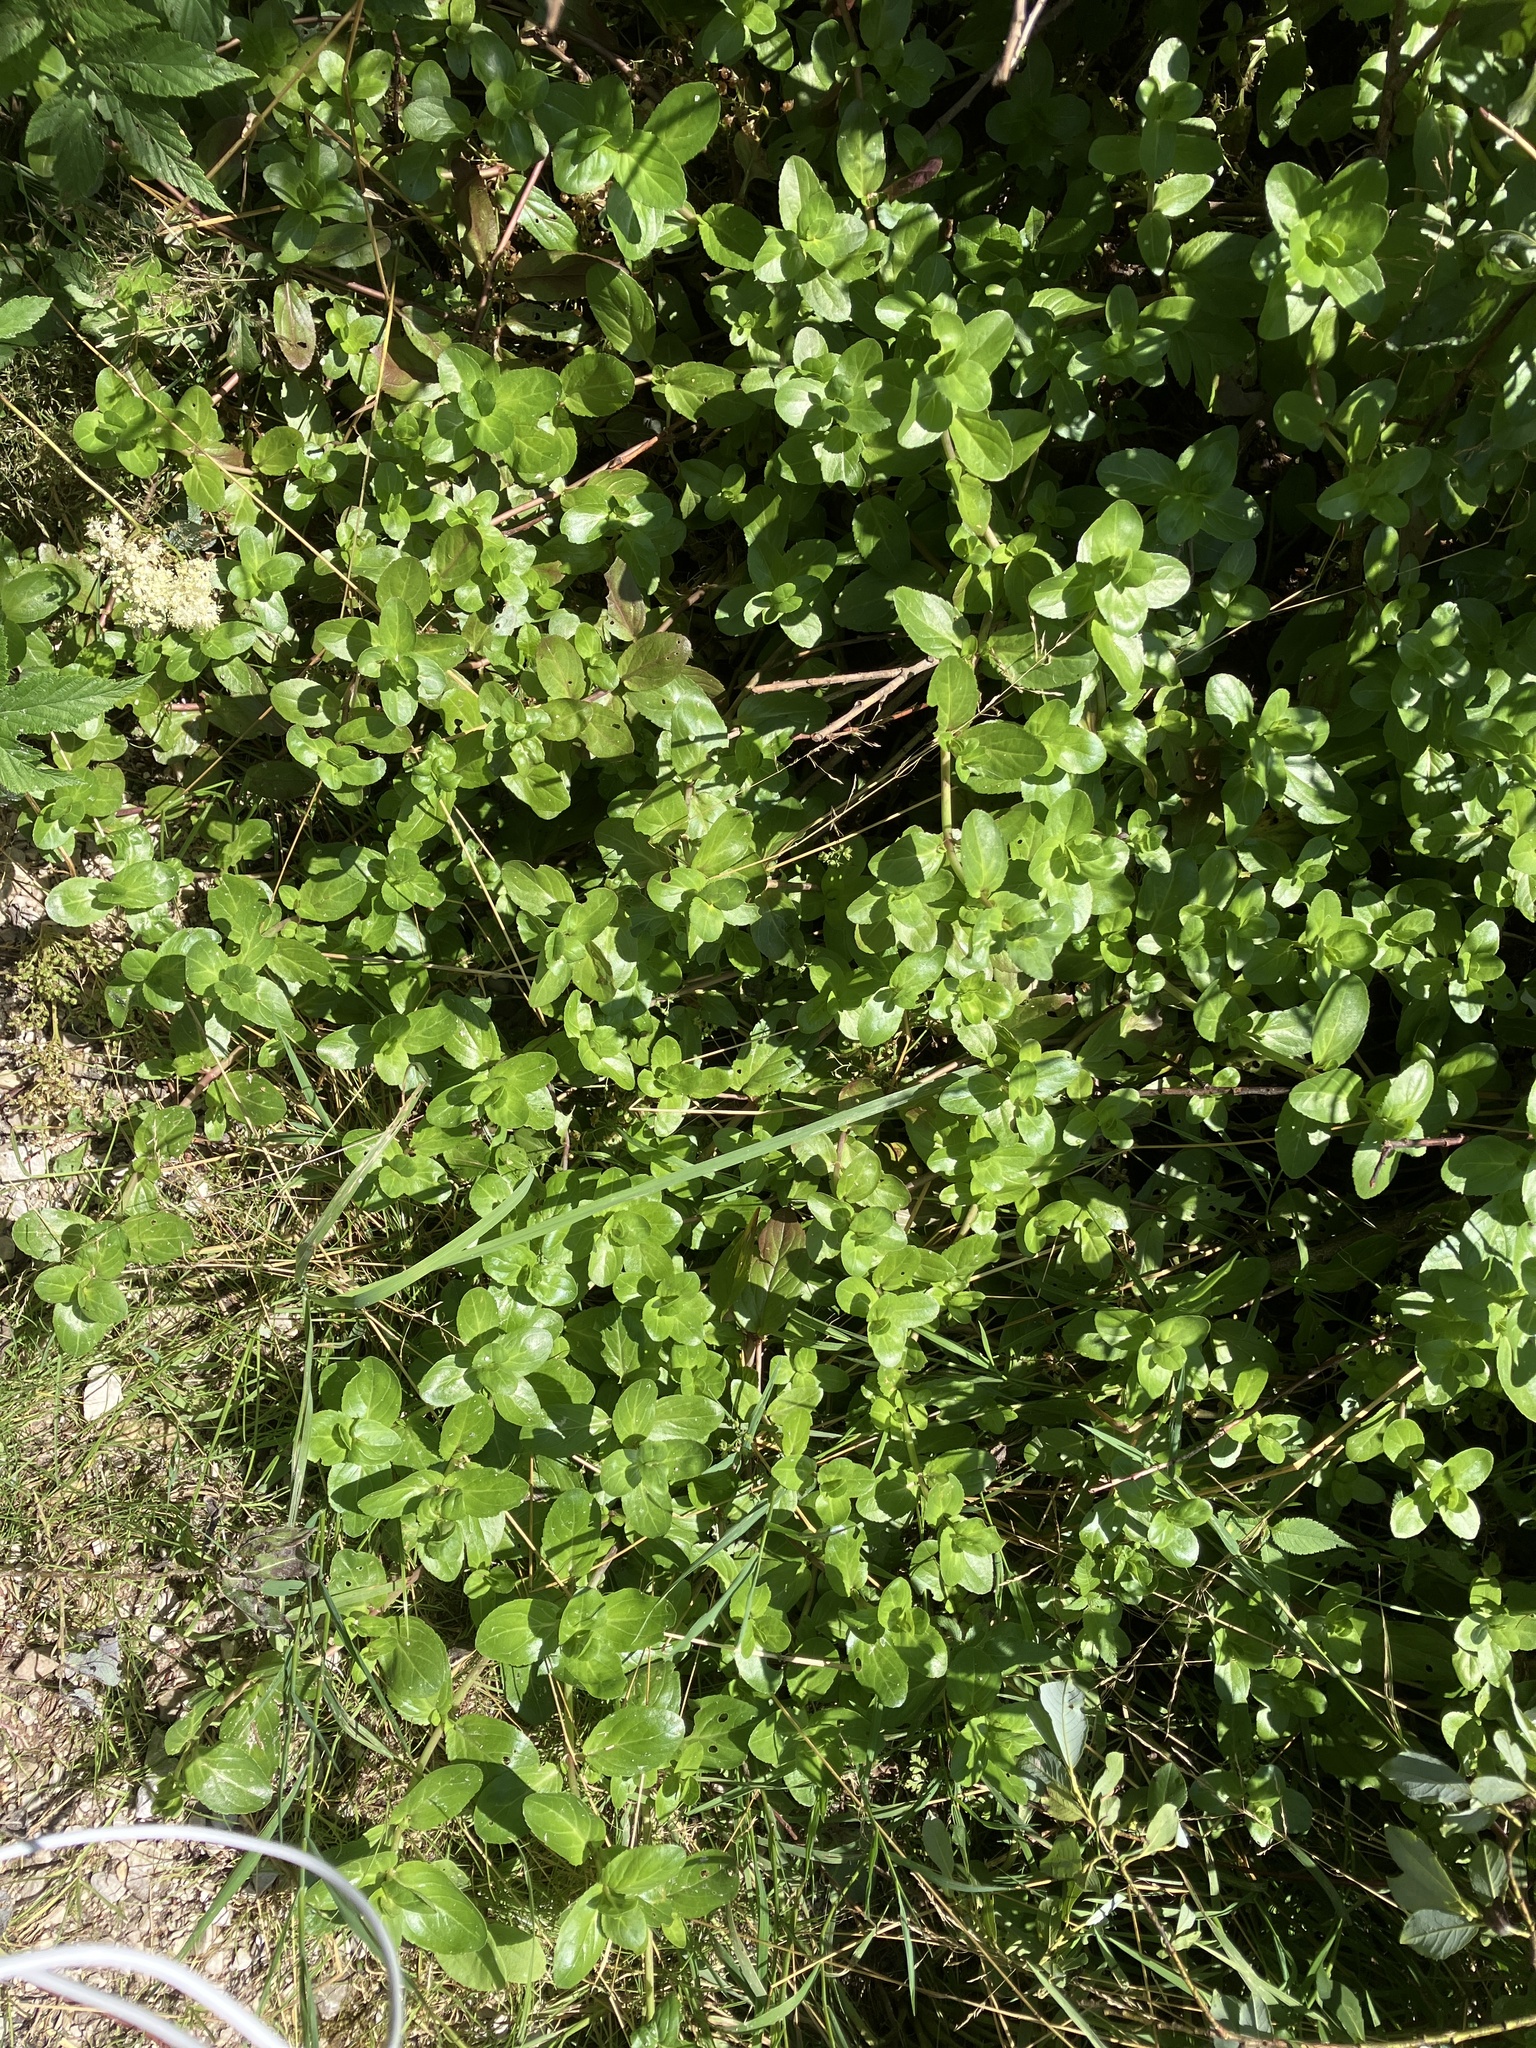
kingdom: Plantae
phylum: Tracheophyta
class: Magnoliopsida
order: Lamiales
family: Plantaginaceae
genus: Veronica
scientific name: Veronica beccabunga
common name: Brooklime
